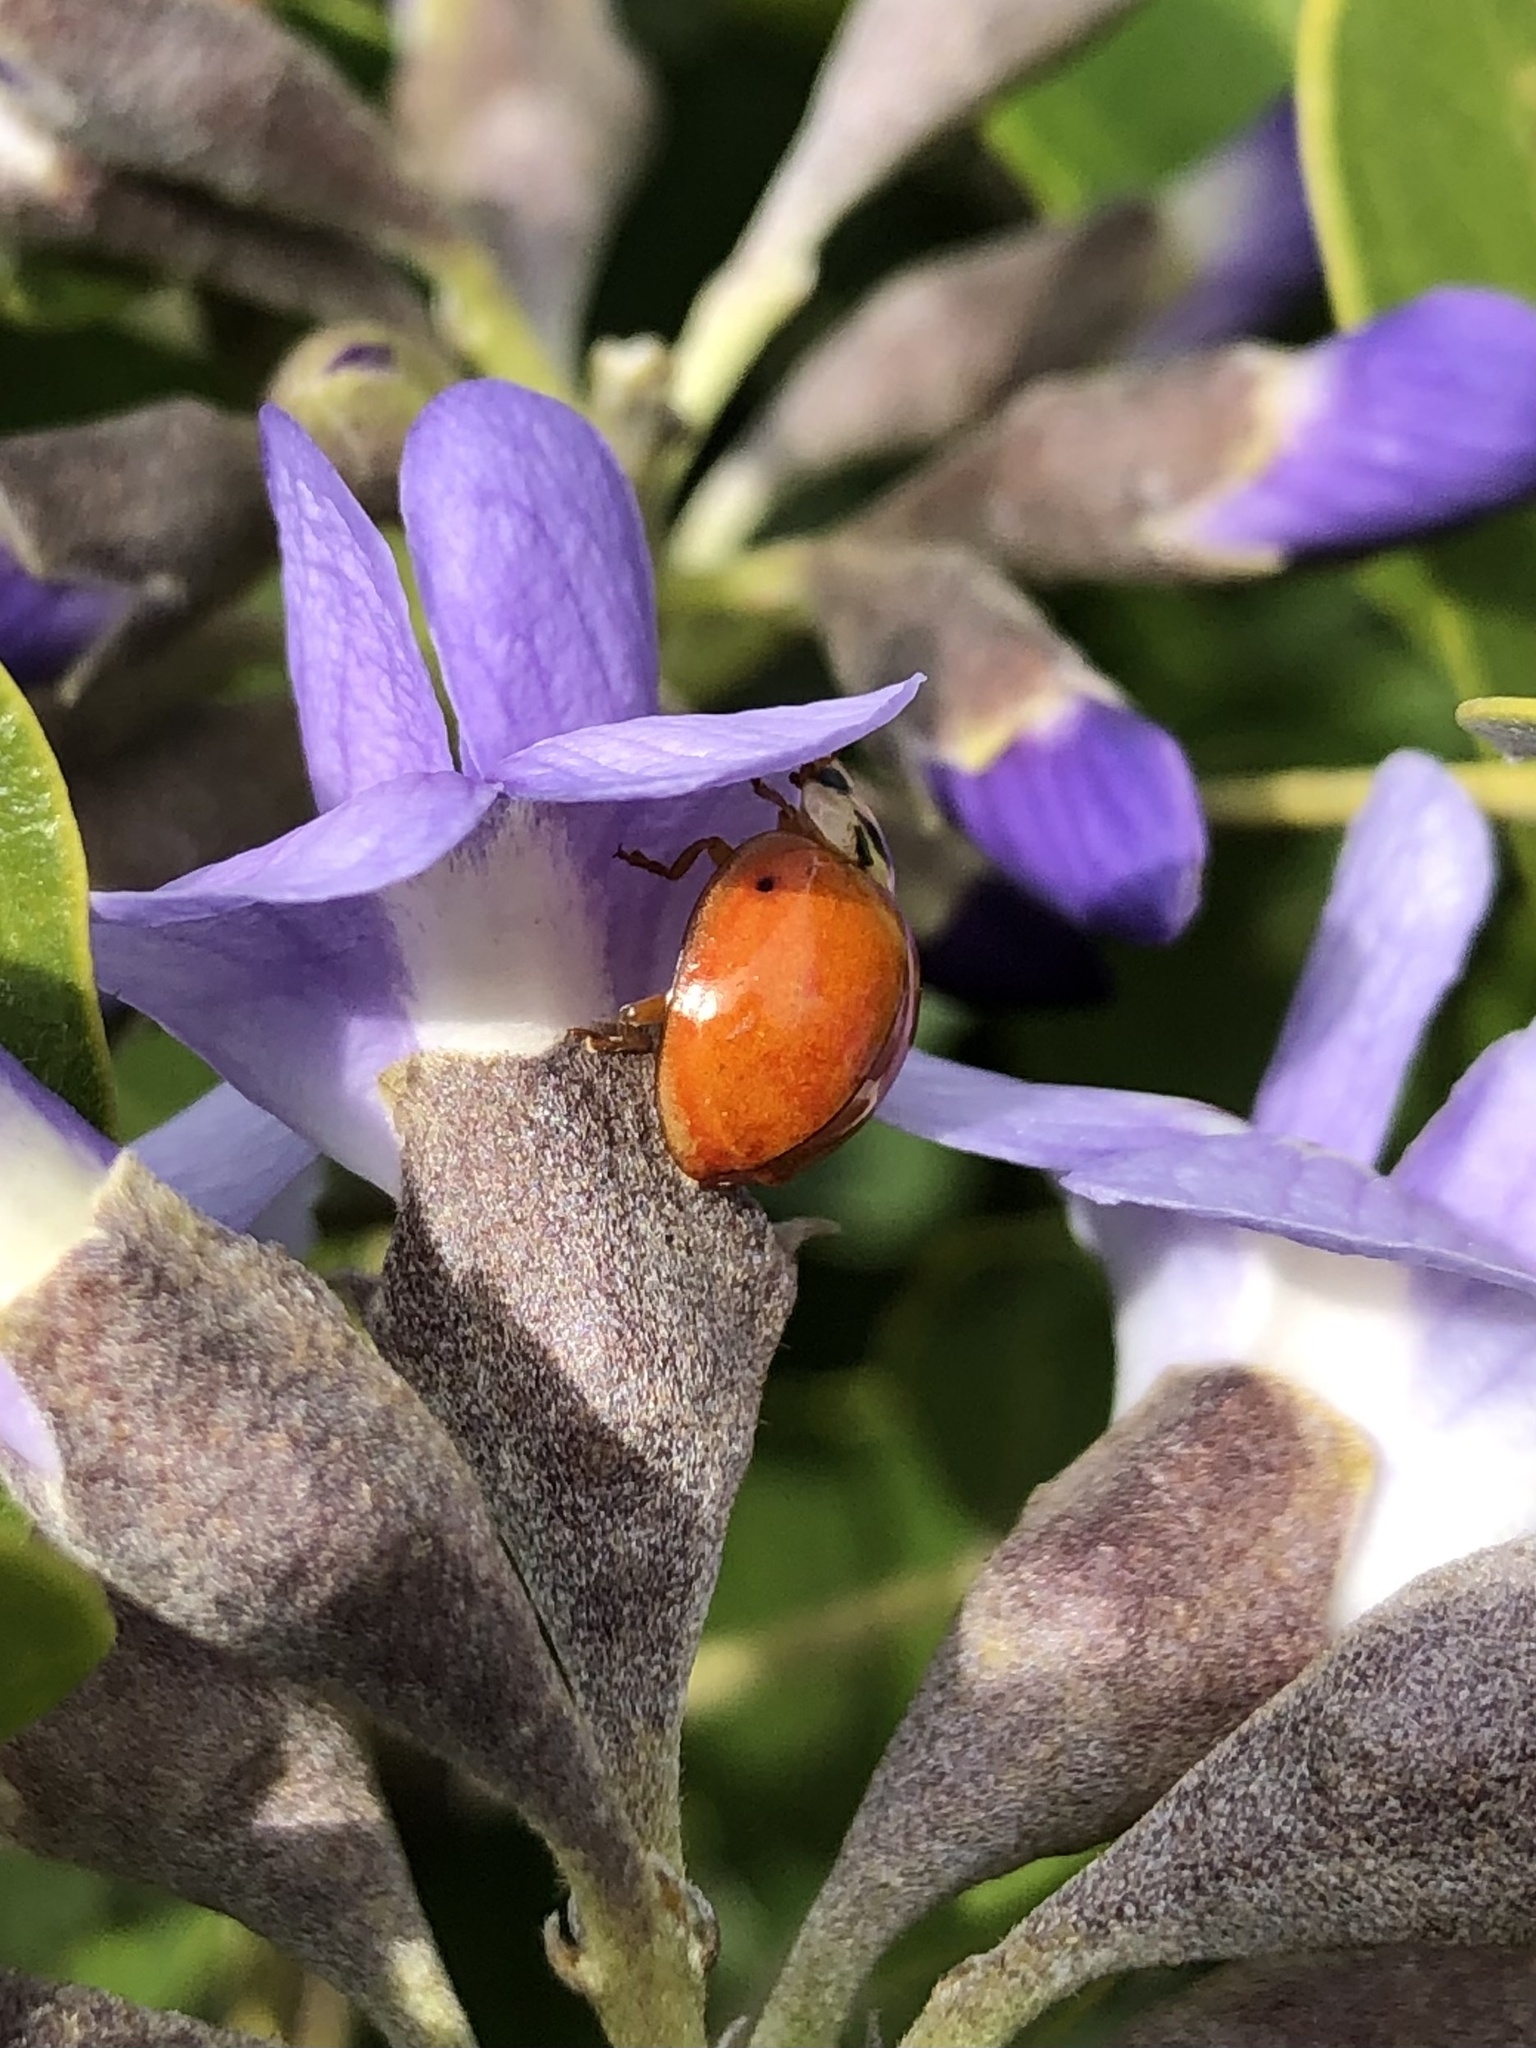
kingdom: Animalia
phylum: Arthropoda
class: Insecta
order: Coleoptera
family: Coccinellidae
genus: Harmonia
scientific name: Harmonia axyridis
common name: Harlequin ladybird
